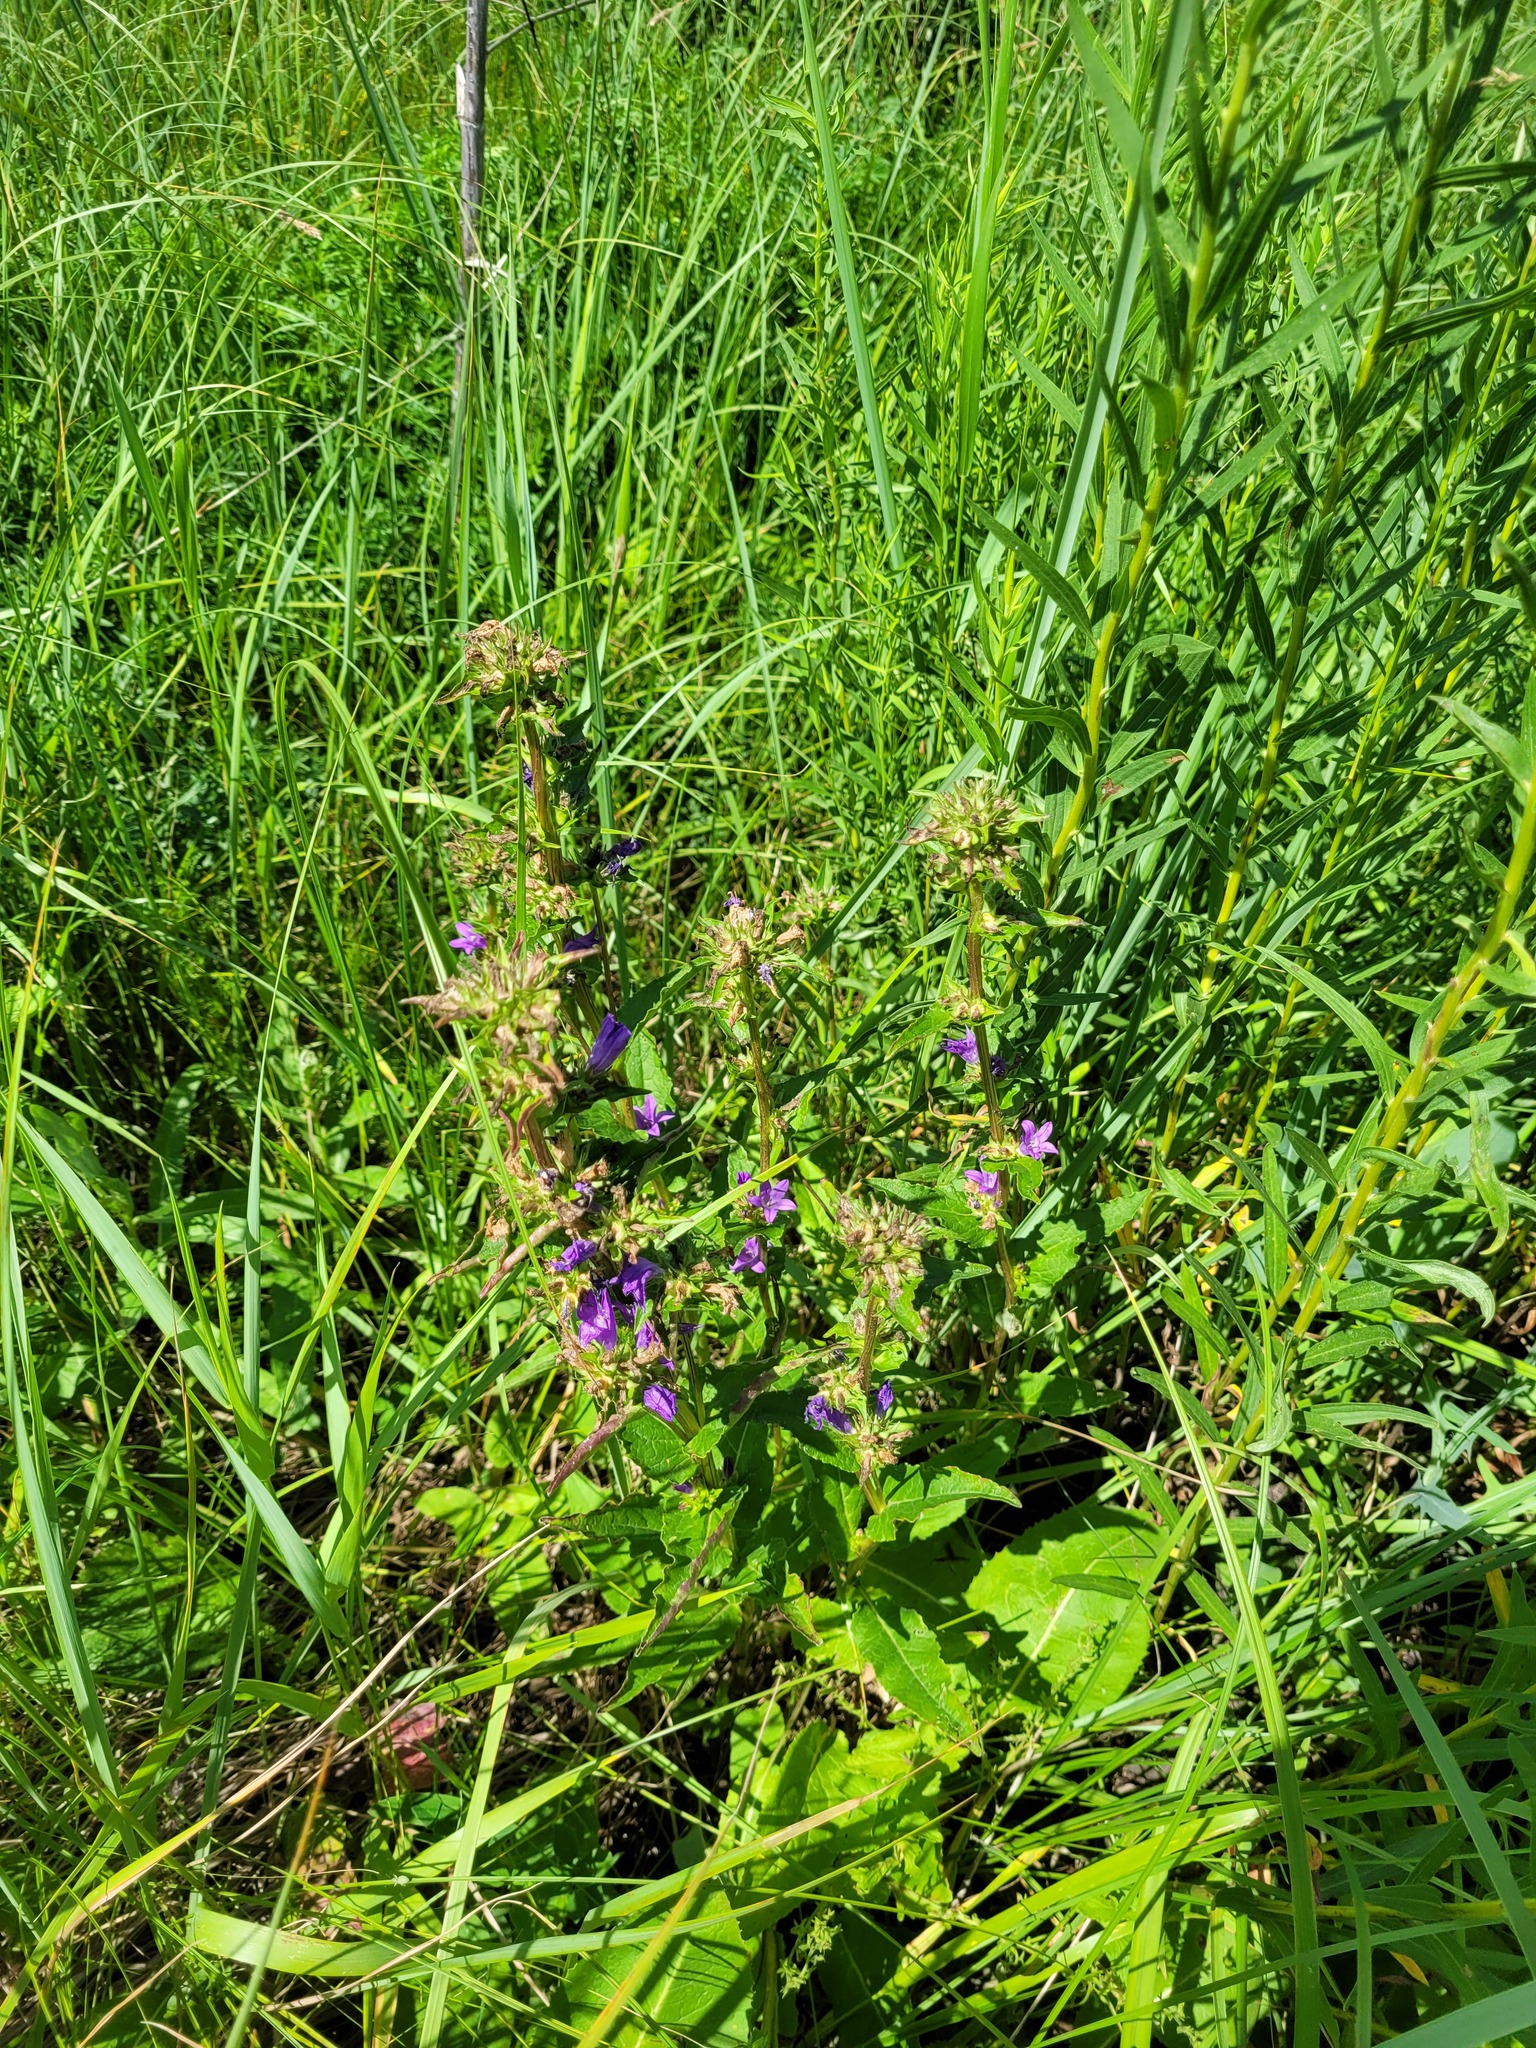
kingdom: Plantae
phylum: Tracheophyta
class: Magnoliopsida
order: Asterales
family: Campanulaceae
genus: Campanula
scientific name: Campanula glomerata
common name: Clustered bellflower
